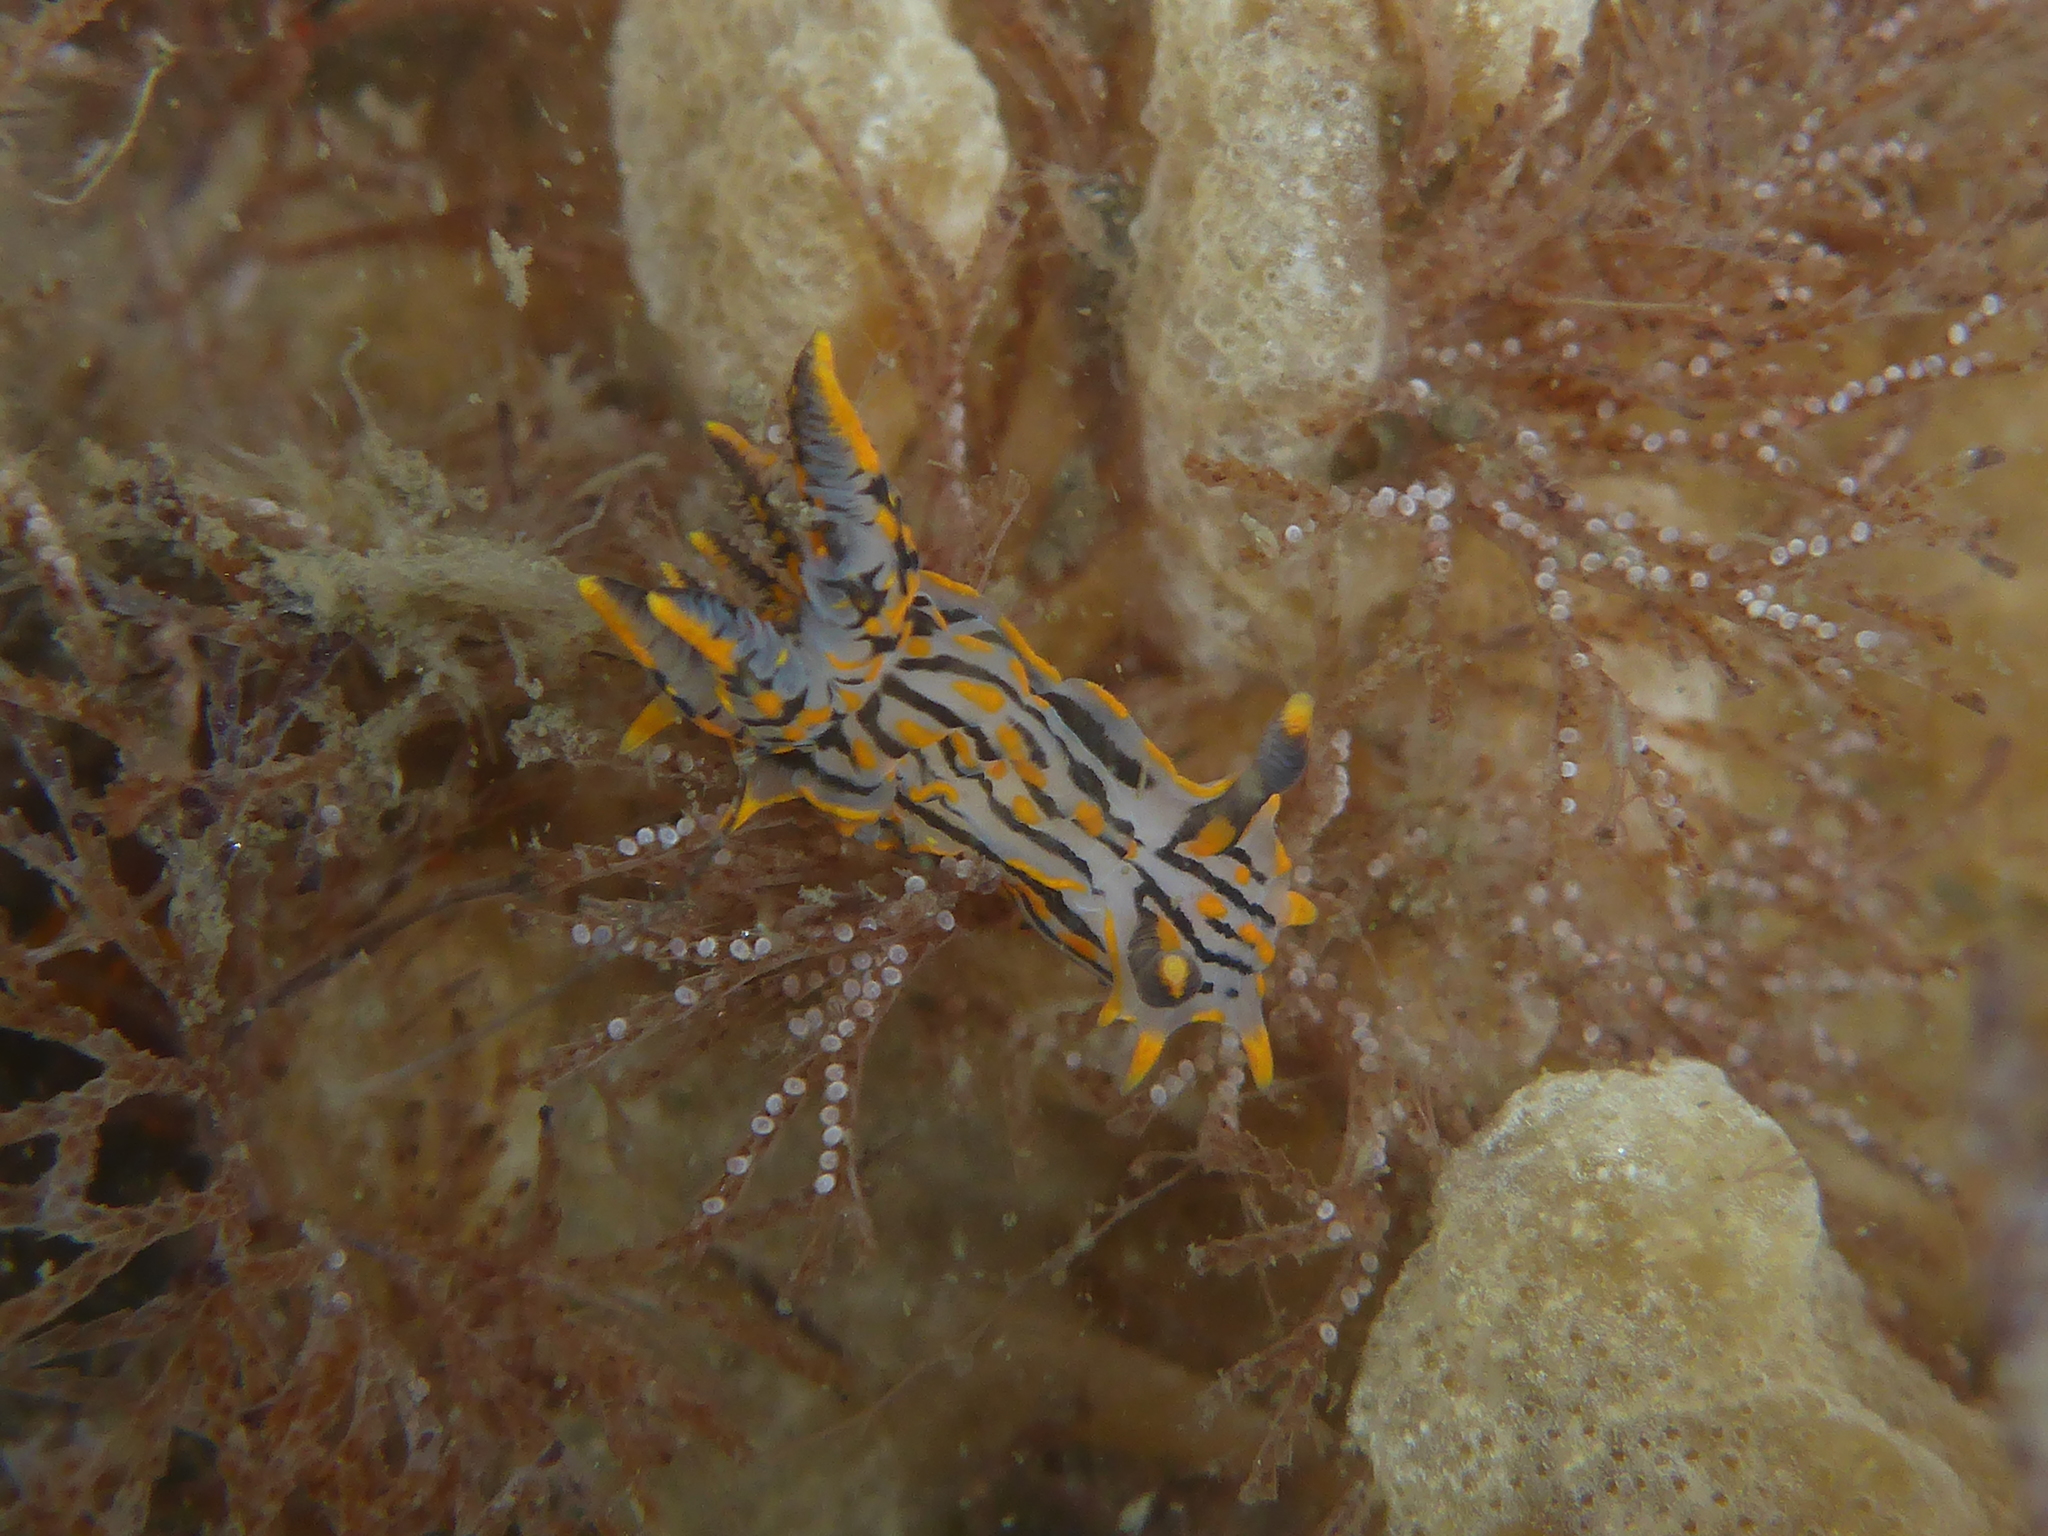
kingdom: Animalia
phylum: Mollusca
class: Gastropoda
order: Nudibranchia
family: Polyceridae
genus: Polycera
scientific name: Polycera atra
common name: Orange-spike polycera
